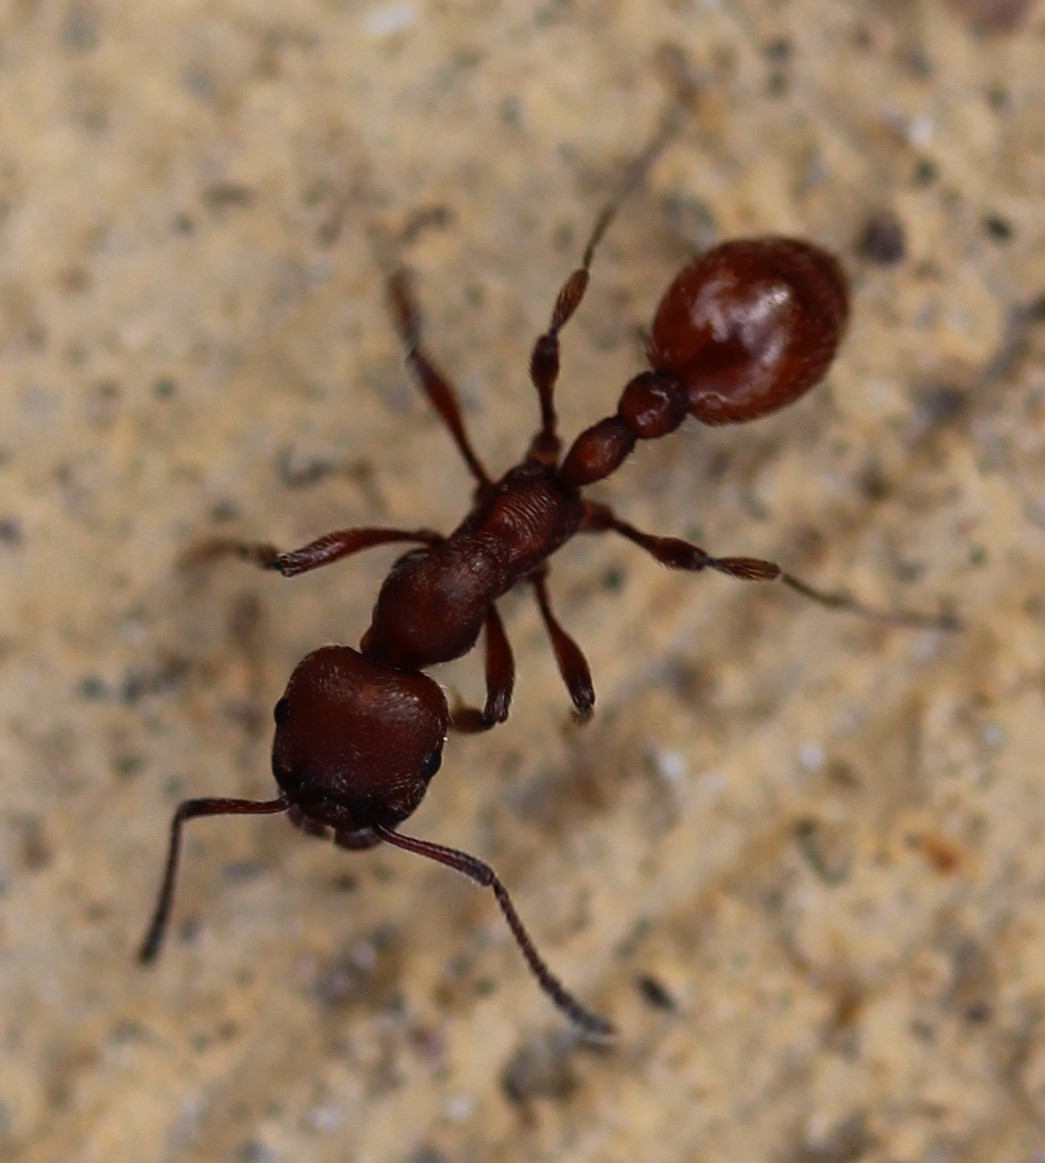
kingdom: Animalia
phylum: Arthropoda
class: Insecta
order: Hymenoptera
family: Formicidae
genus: Manica
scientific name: Manica invidia
